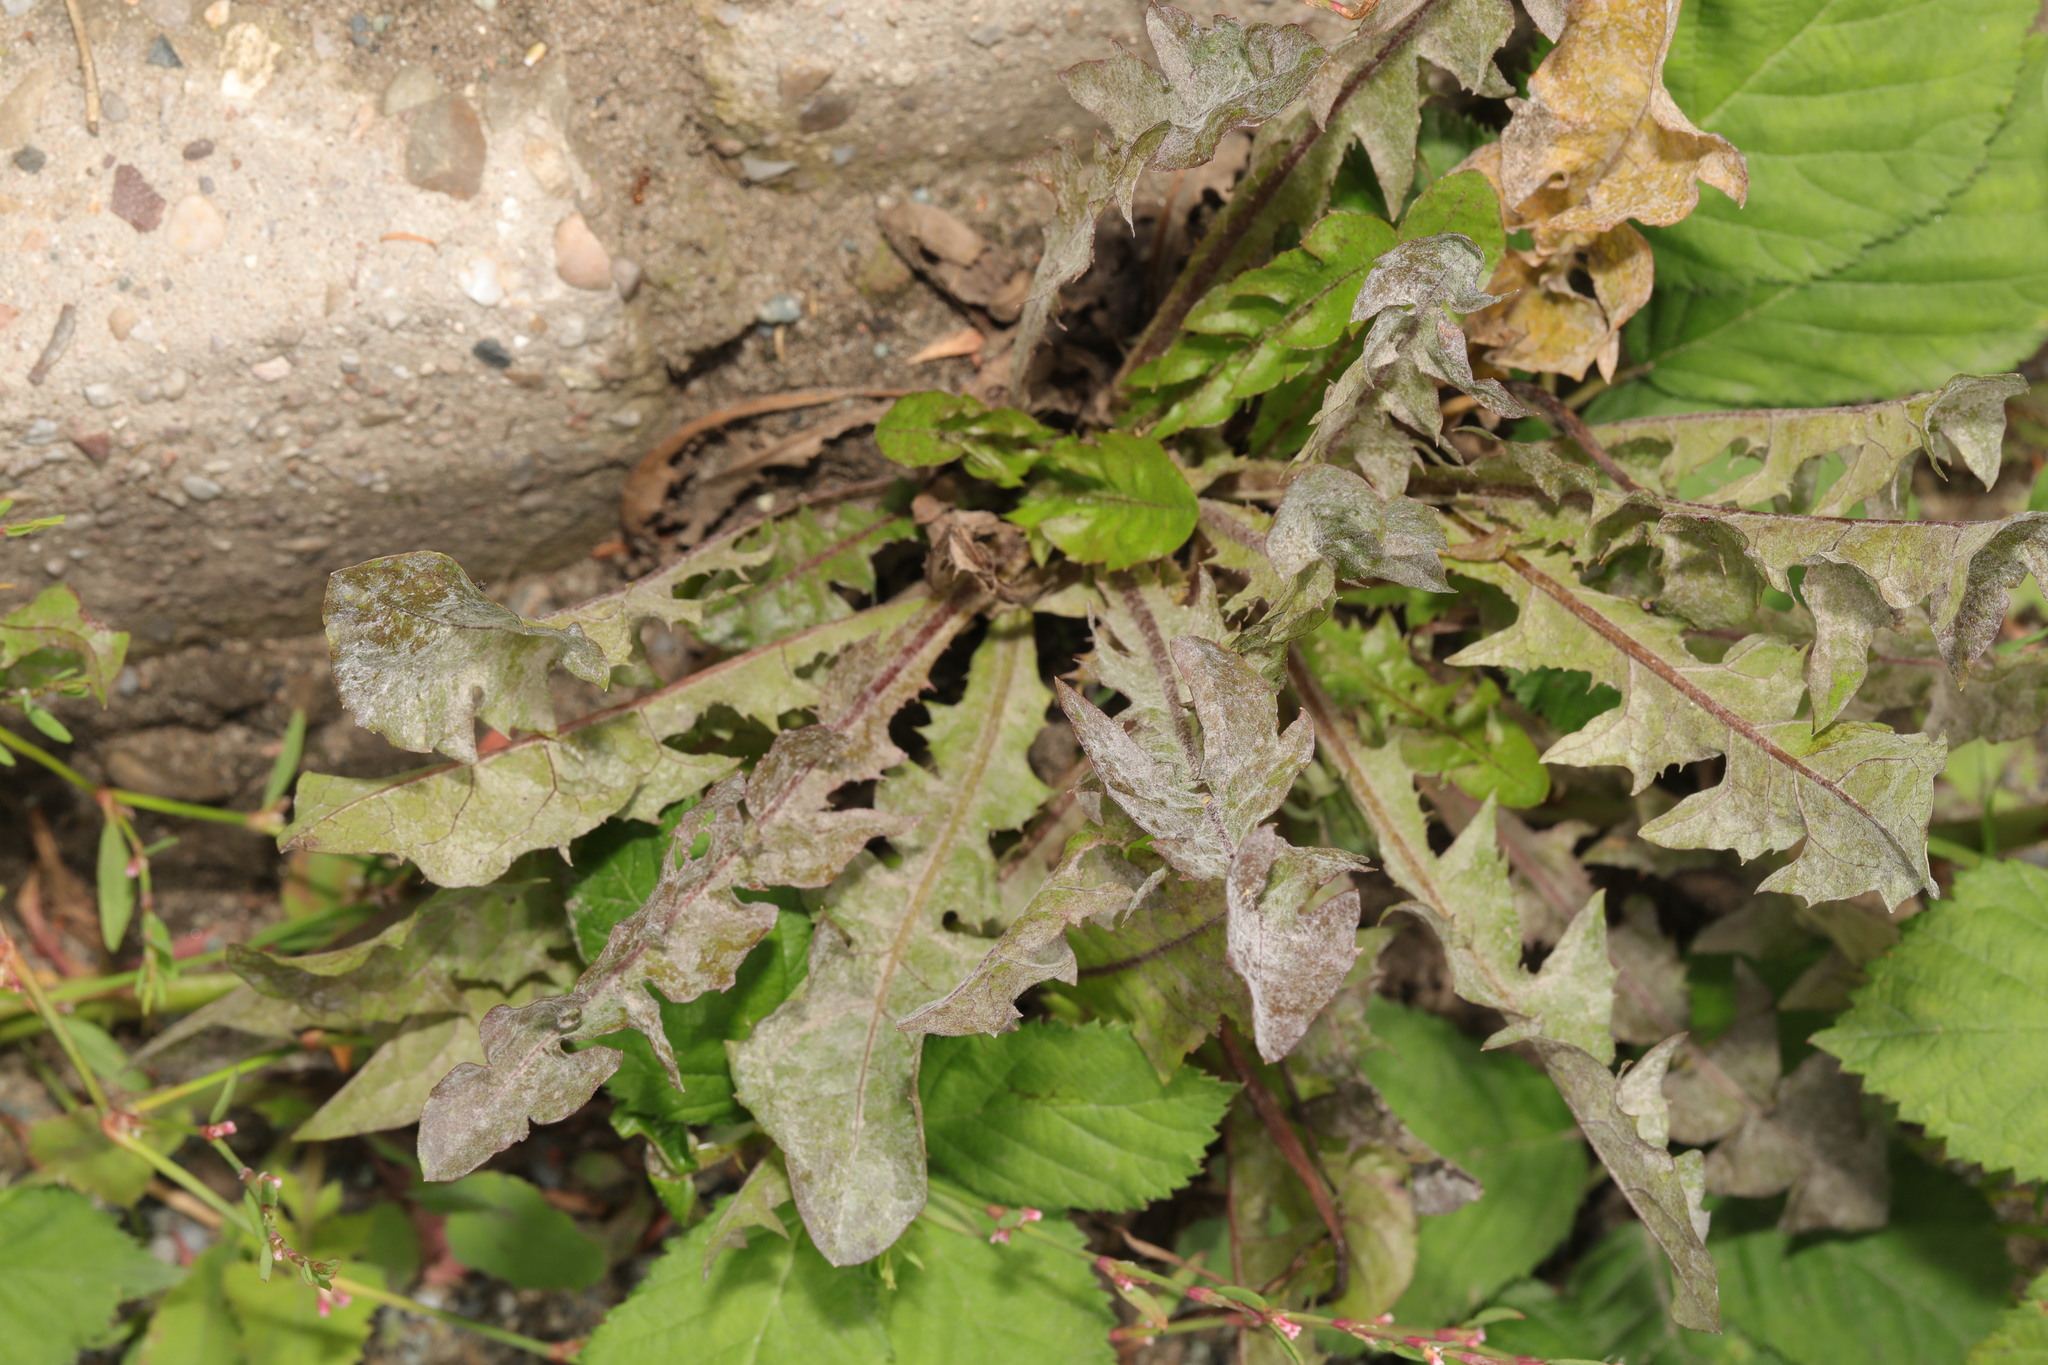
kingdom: Plantae
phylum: Tracheophyta
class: Magnoliopsida
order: Asterales
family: Asteraceae
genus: Taraxacum
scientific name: Taraxacum officinale
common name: Common dandelion
